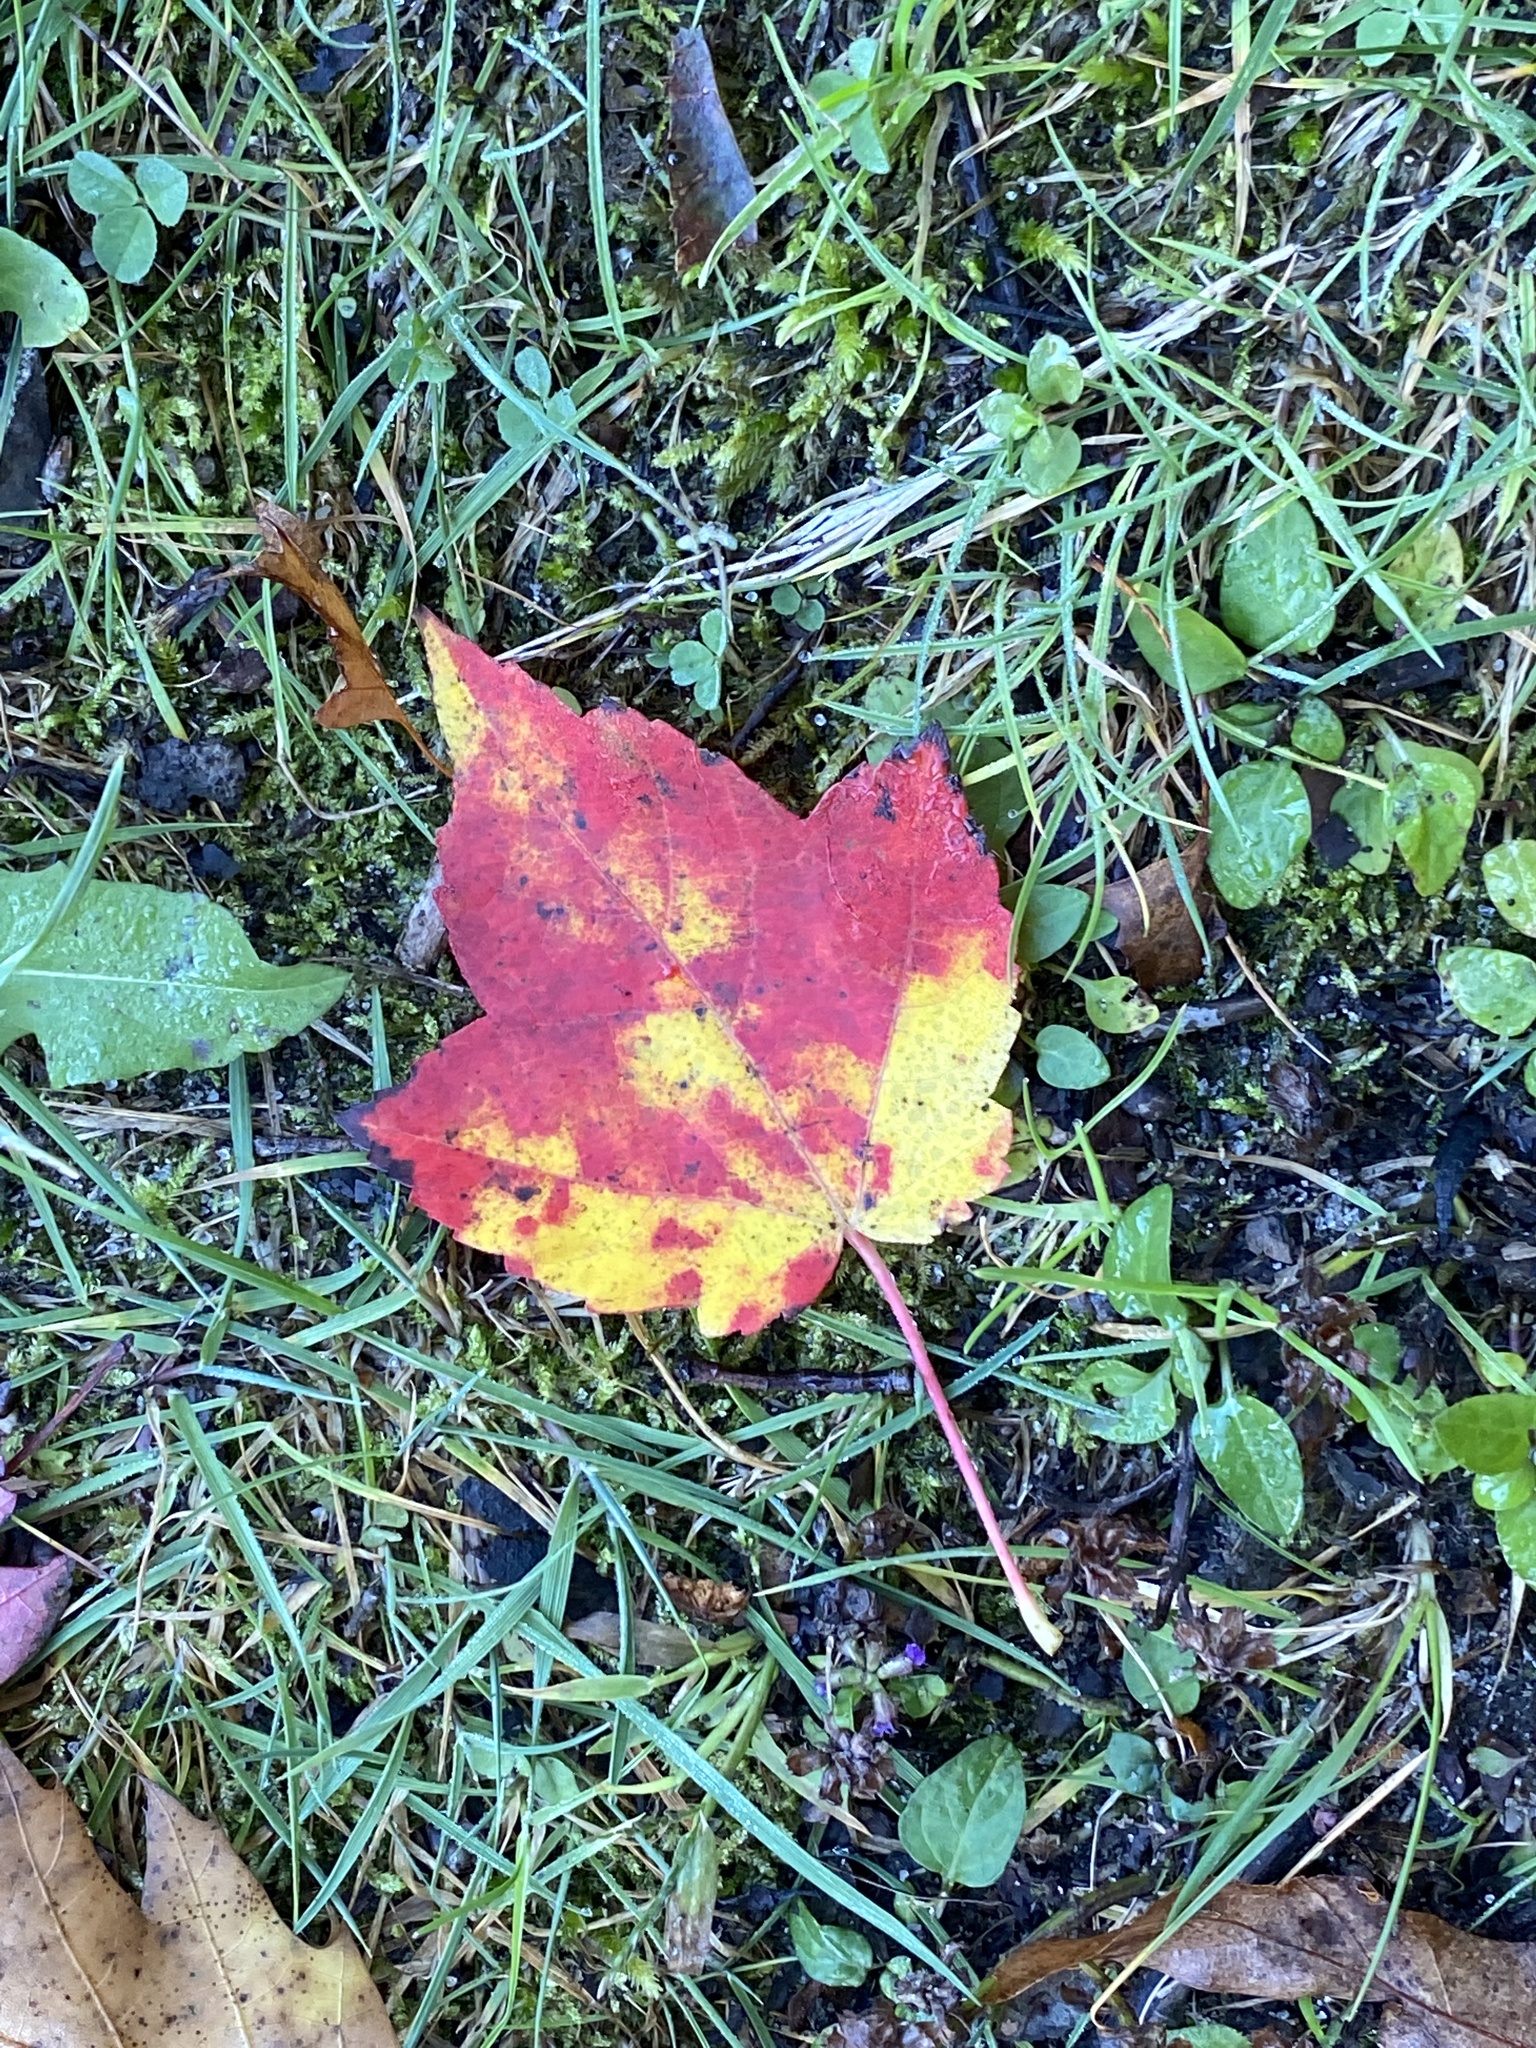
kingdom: Plantae
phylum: Tracheophyta
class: Magnoliopsida
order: Sapindales
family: Sapindaceae
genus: Acer
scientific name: Acer rubrum
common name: Red maple
